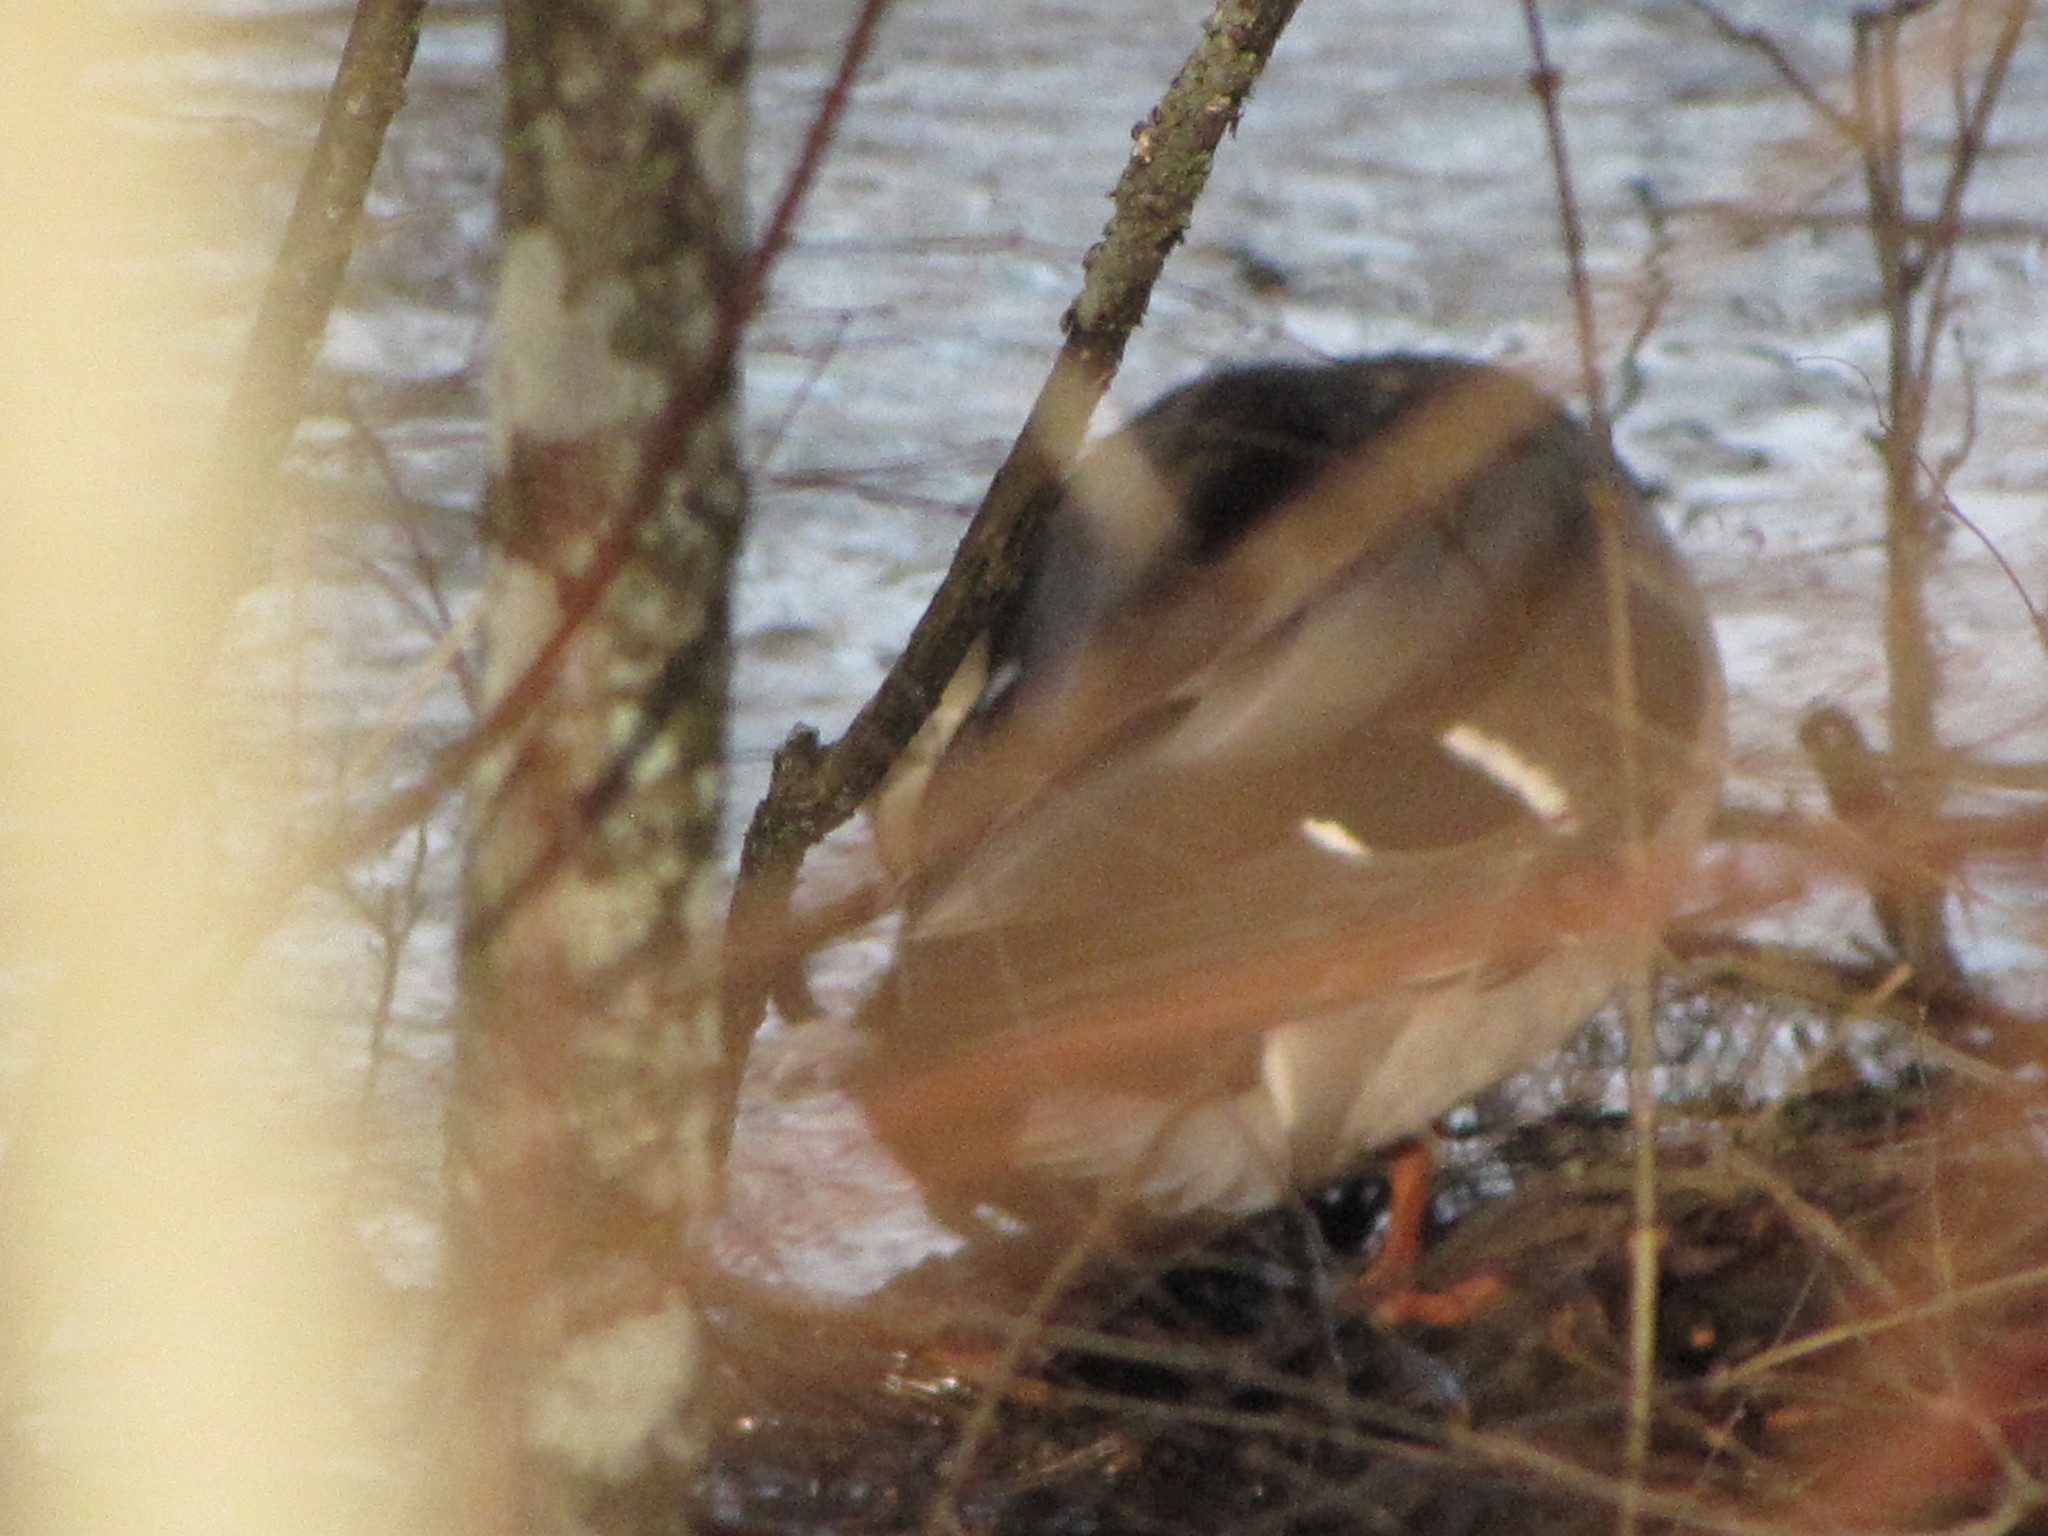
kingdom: Animalia
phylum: Chordata
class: Aves
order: Anseriformes
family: Anatidae
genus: Anas
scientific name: Anas platyrhynchos
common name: Mallard
